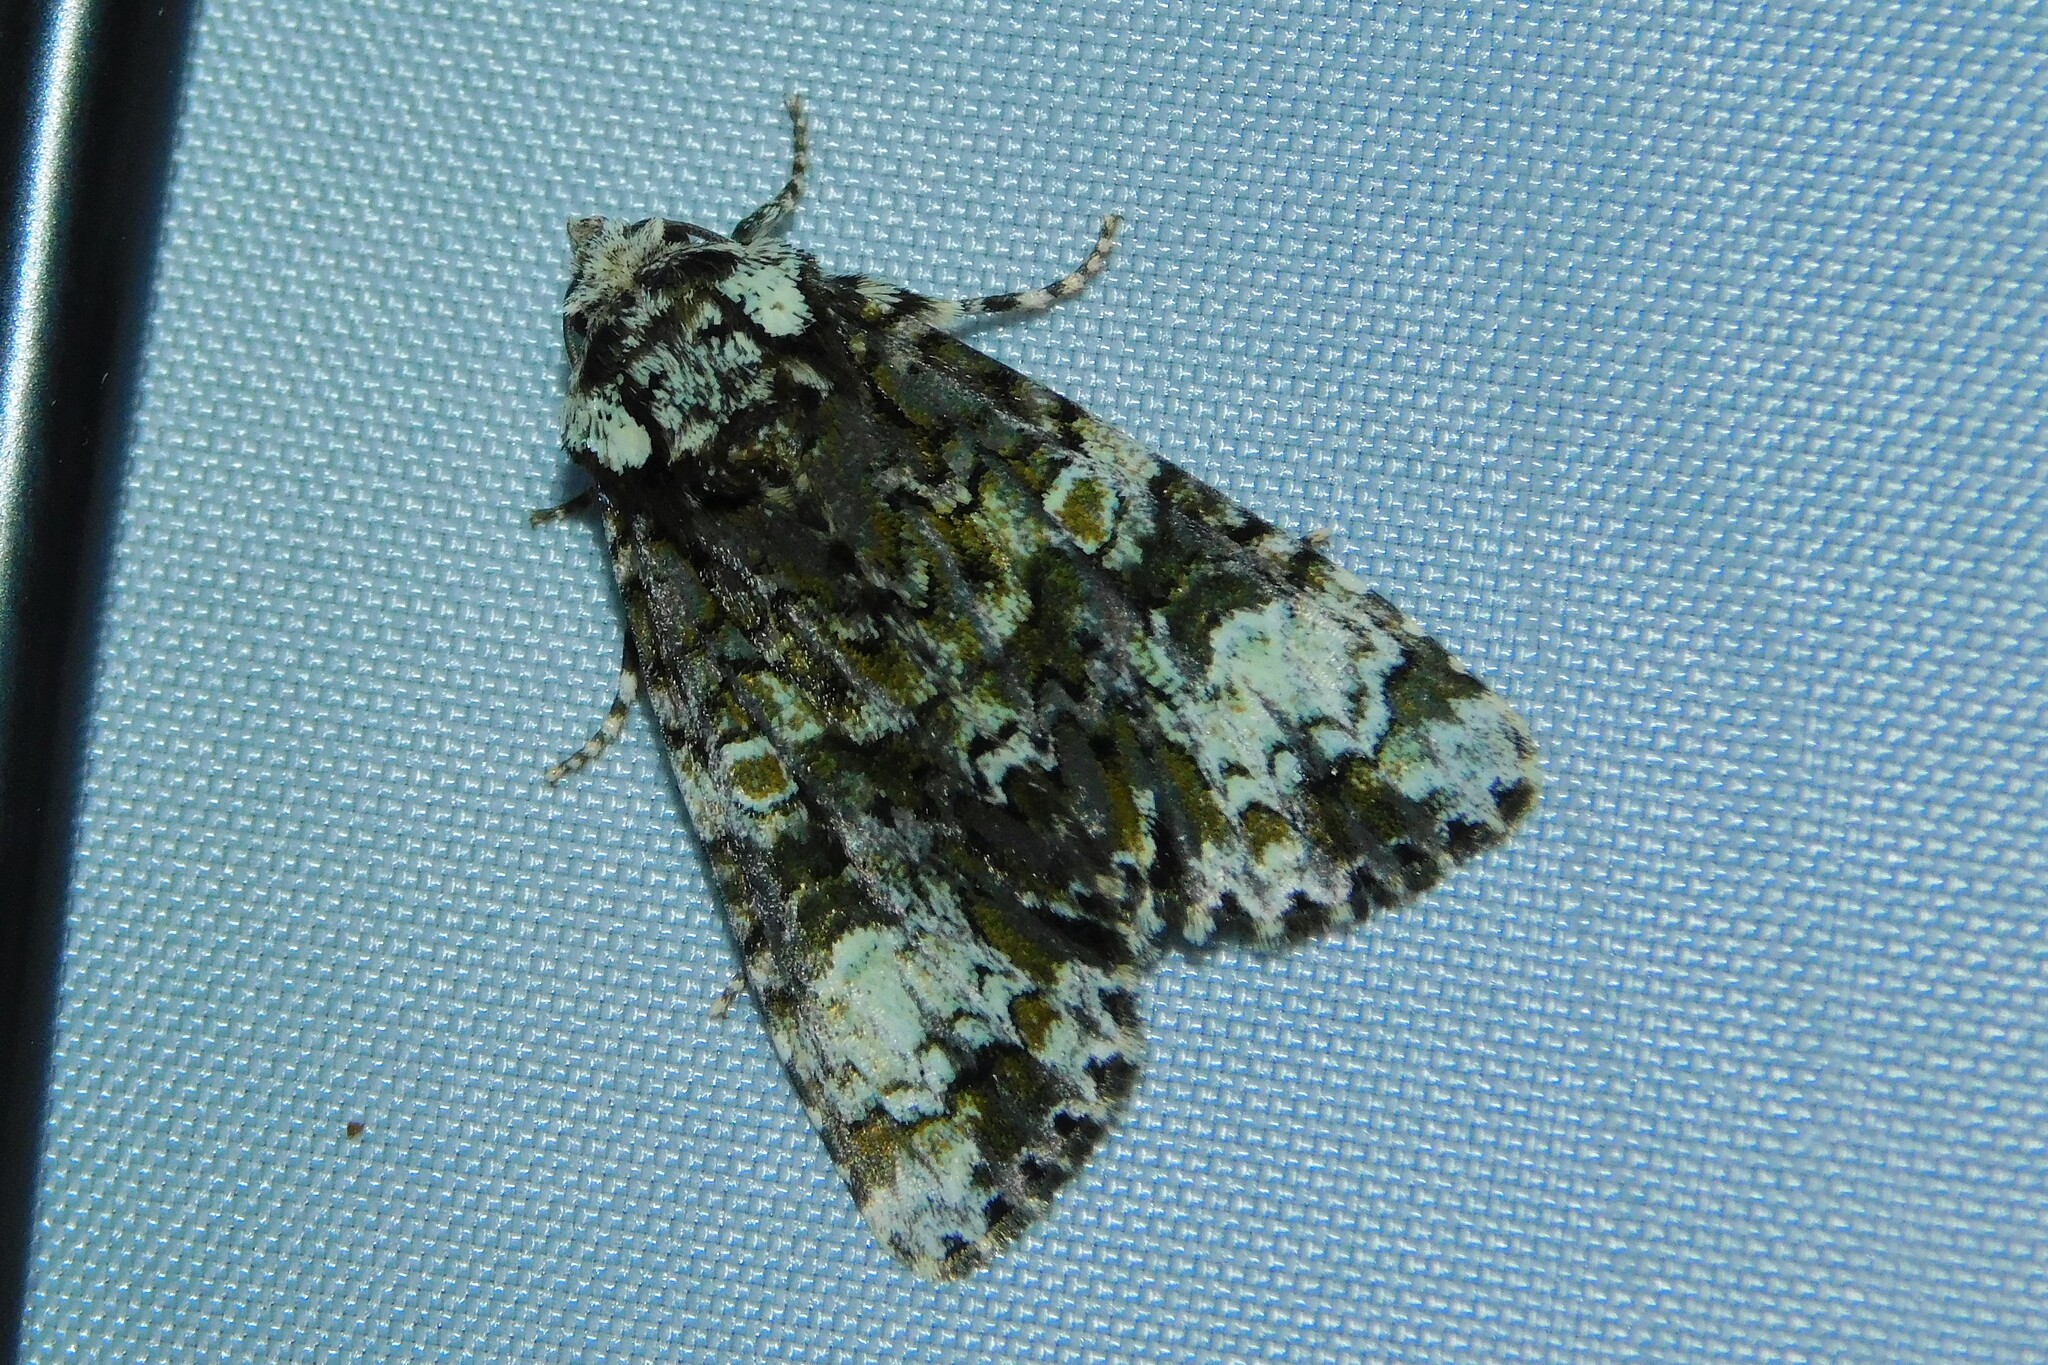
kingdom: Animalia
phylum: Arthropoda
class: Insecta
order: Lepidoptera
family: Noctuidae
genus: Craniophora
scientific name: Craniophora ligustri
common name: Coronet
